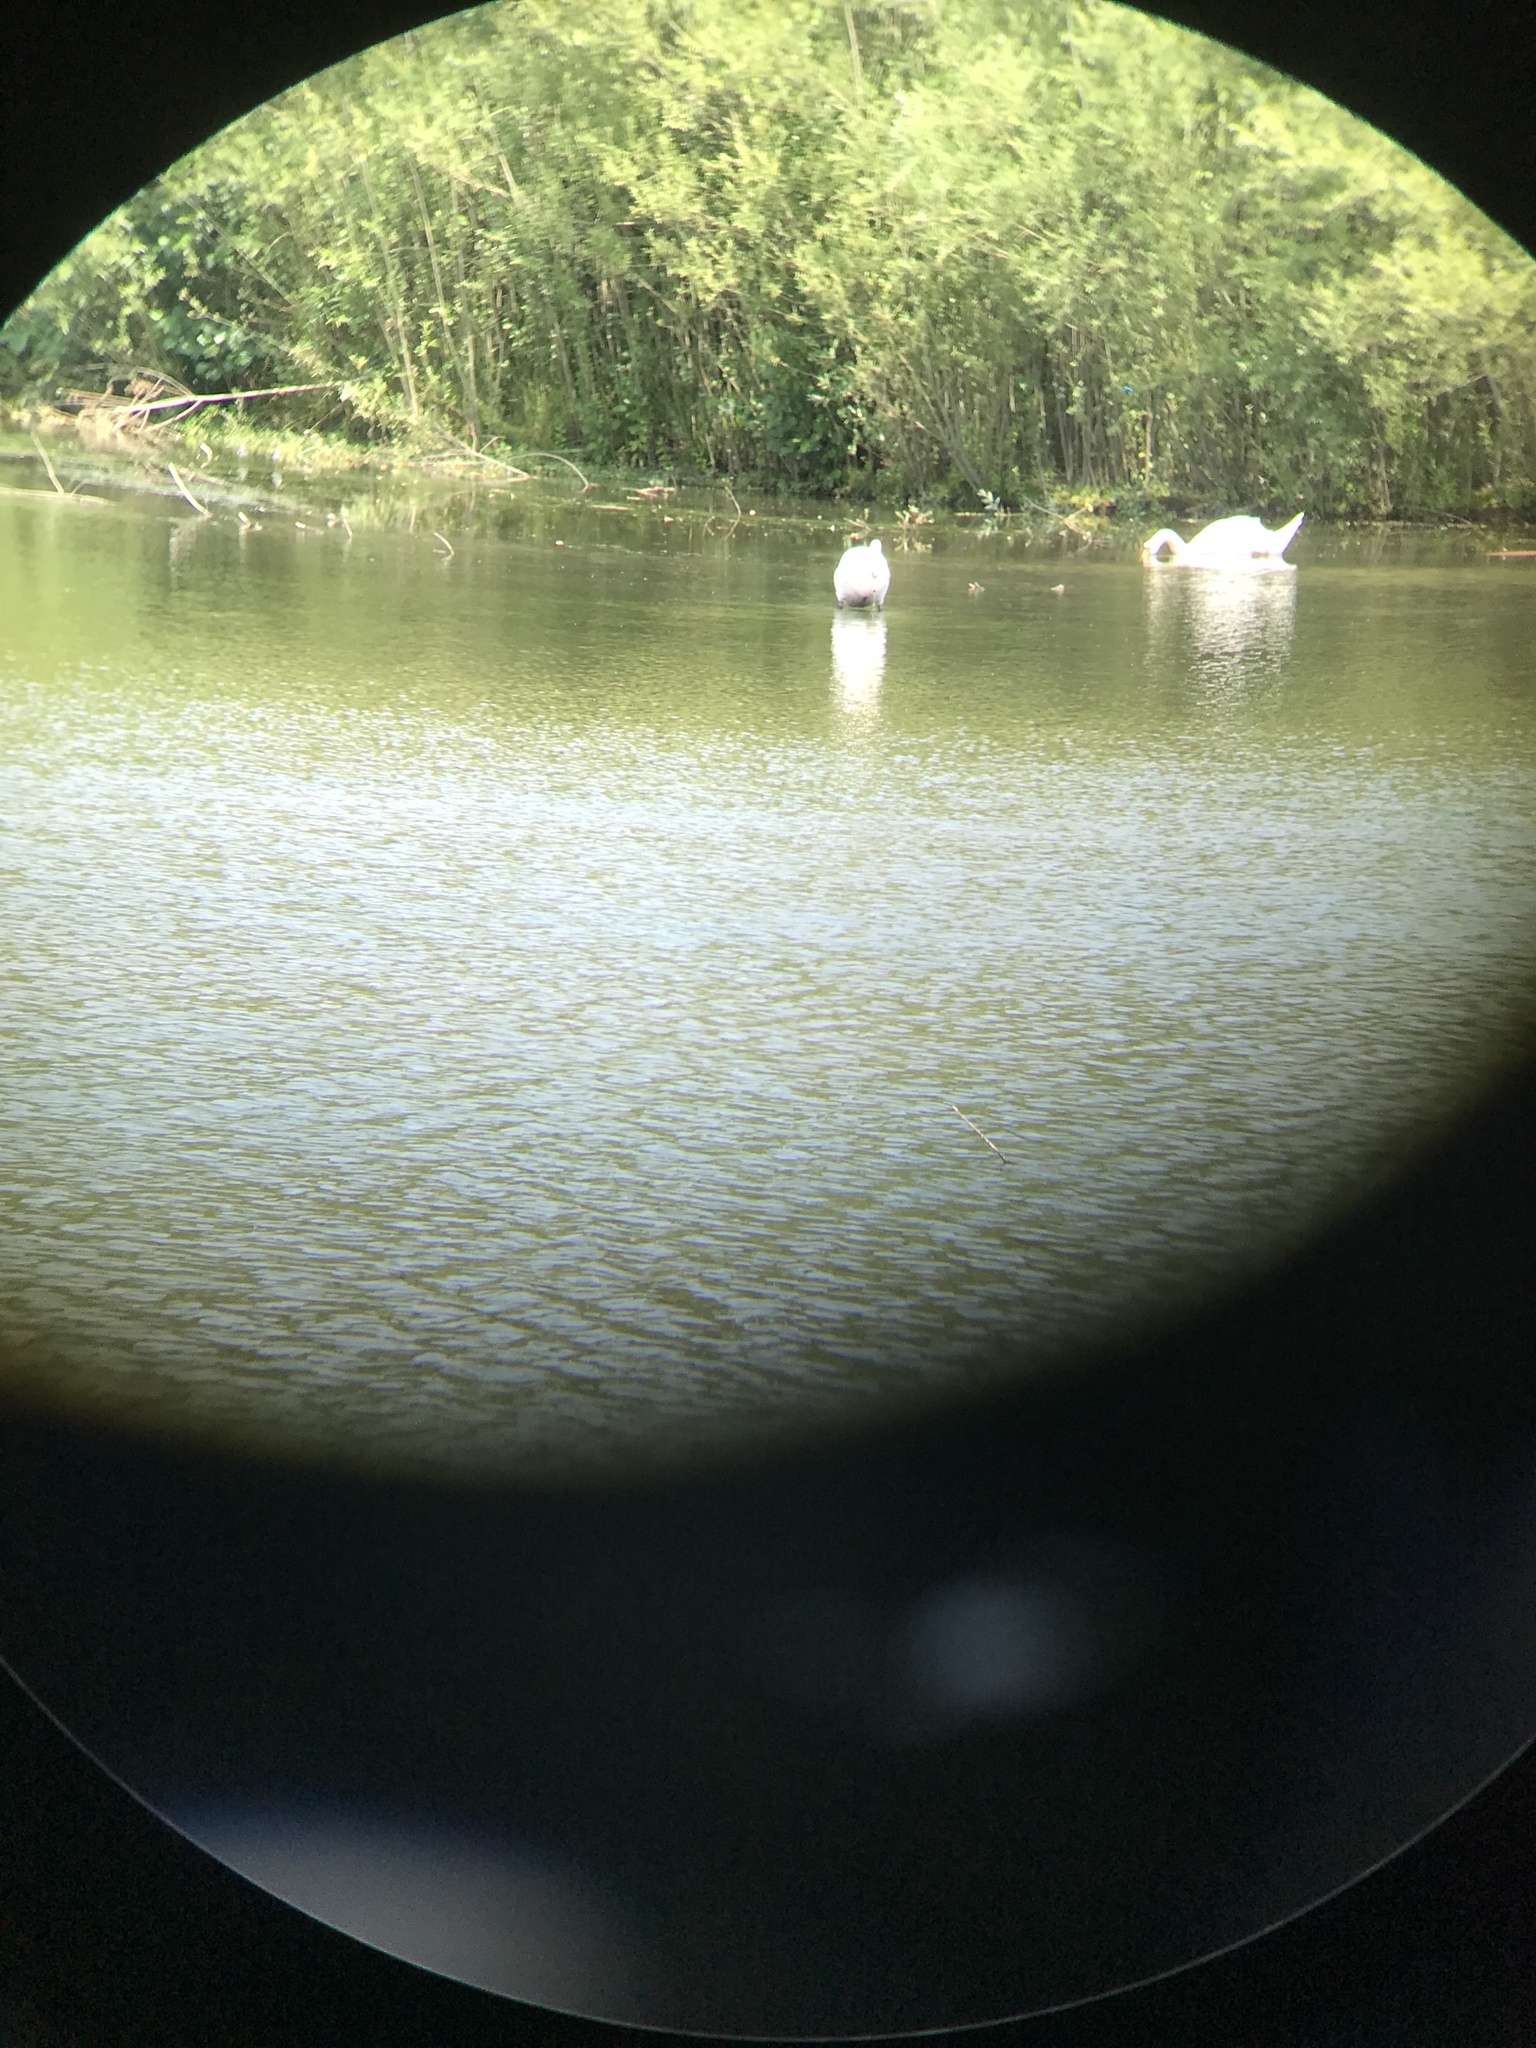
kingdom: Animalia
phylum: Chordata
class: Aves
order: Coraciiformes
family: Alcedinidae
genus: Alcedo
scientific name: Alcedo atthis
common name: Common kingfisher
